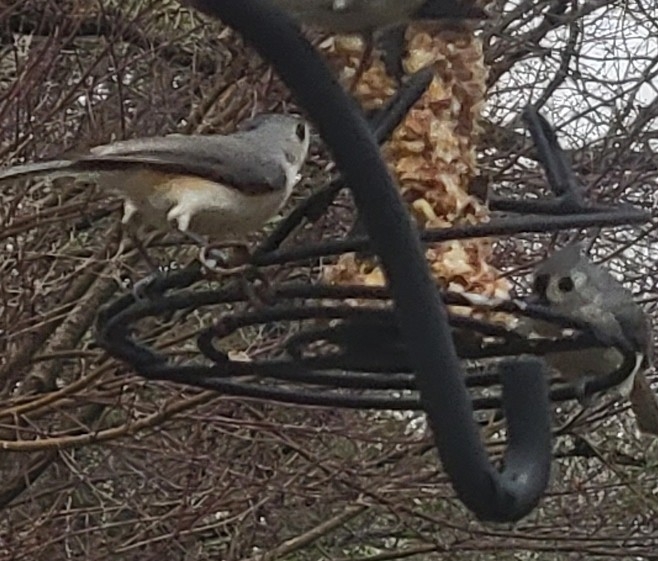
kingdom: Animalia
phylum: Chordata
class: Aves
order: Passeriformes
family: Paridae
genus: Baeolophus
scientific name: Baeolophus bicolor
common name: Tufted titmouse
